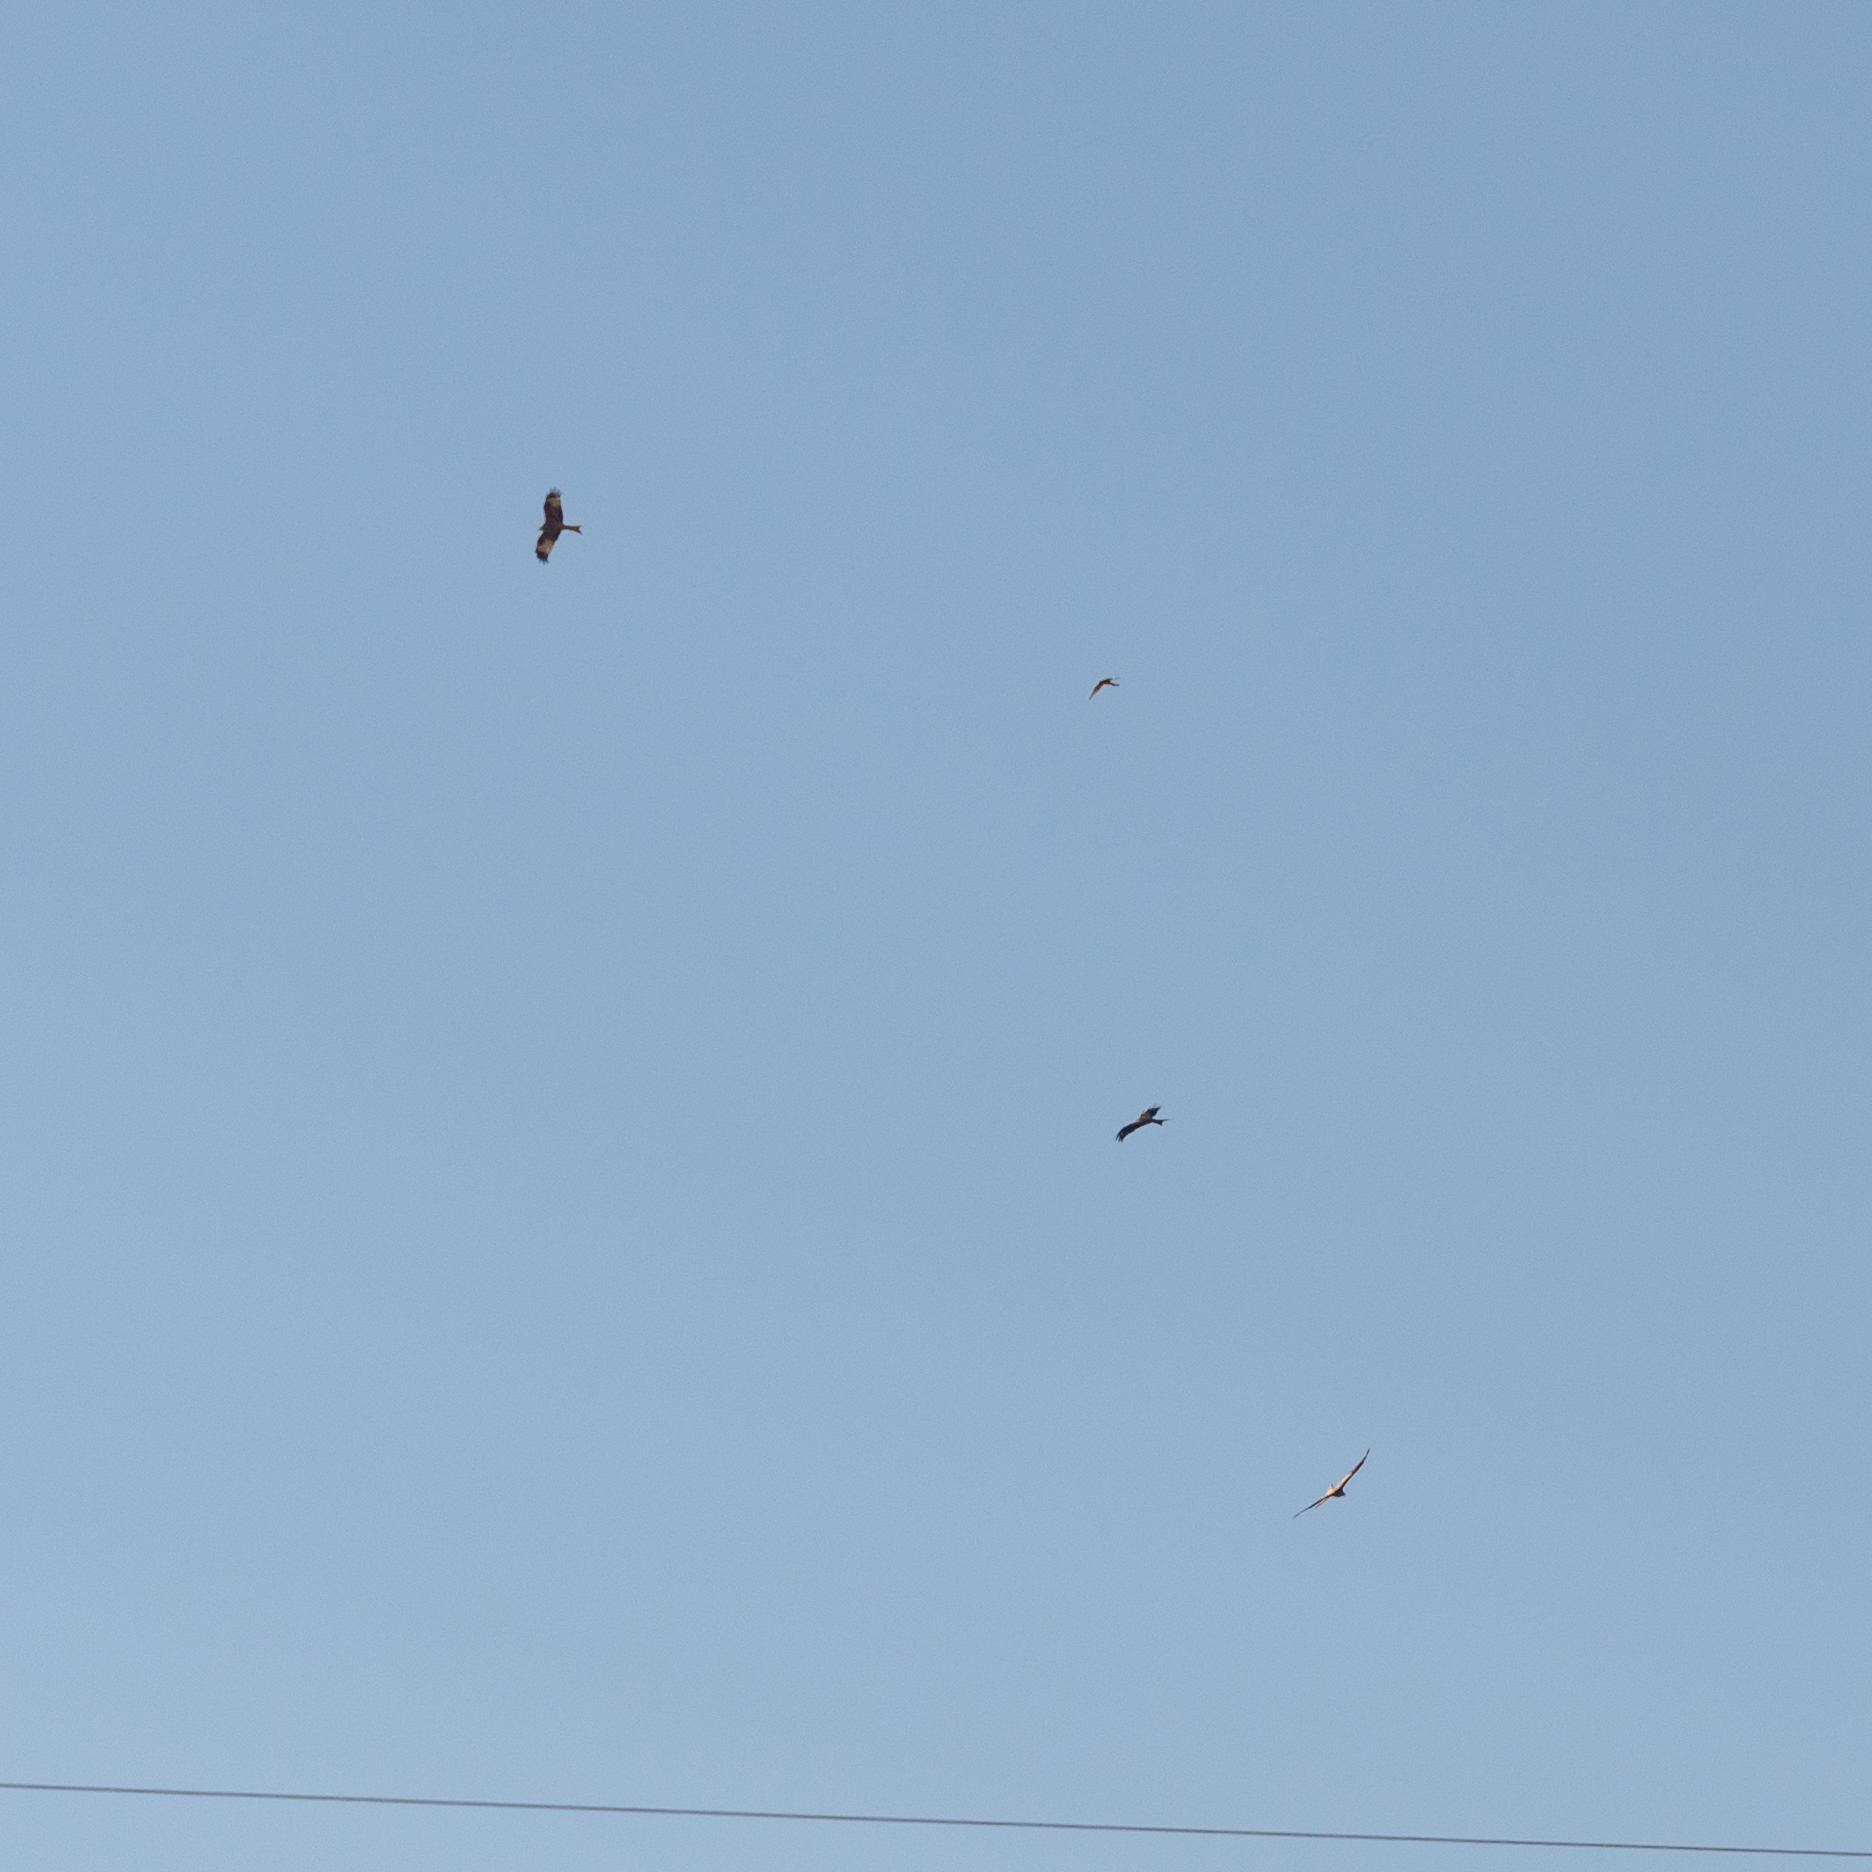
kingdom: Animalia
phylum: Chordata
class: Aves
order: Accipitriformes
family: Accipitridae
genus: Milvus
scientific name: Milvus milvus
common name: Red kite
